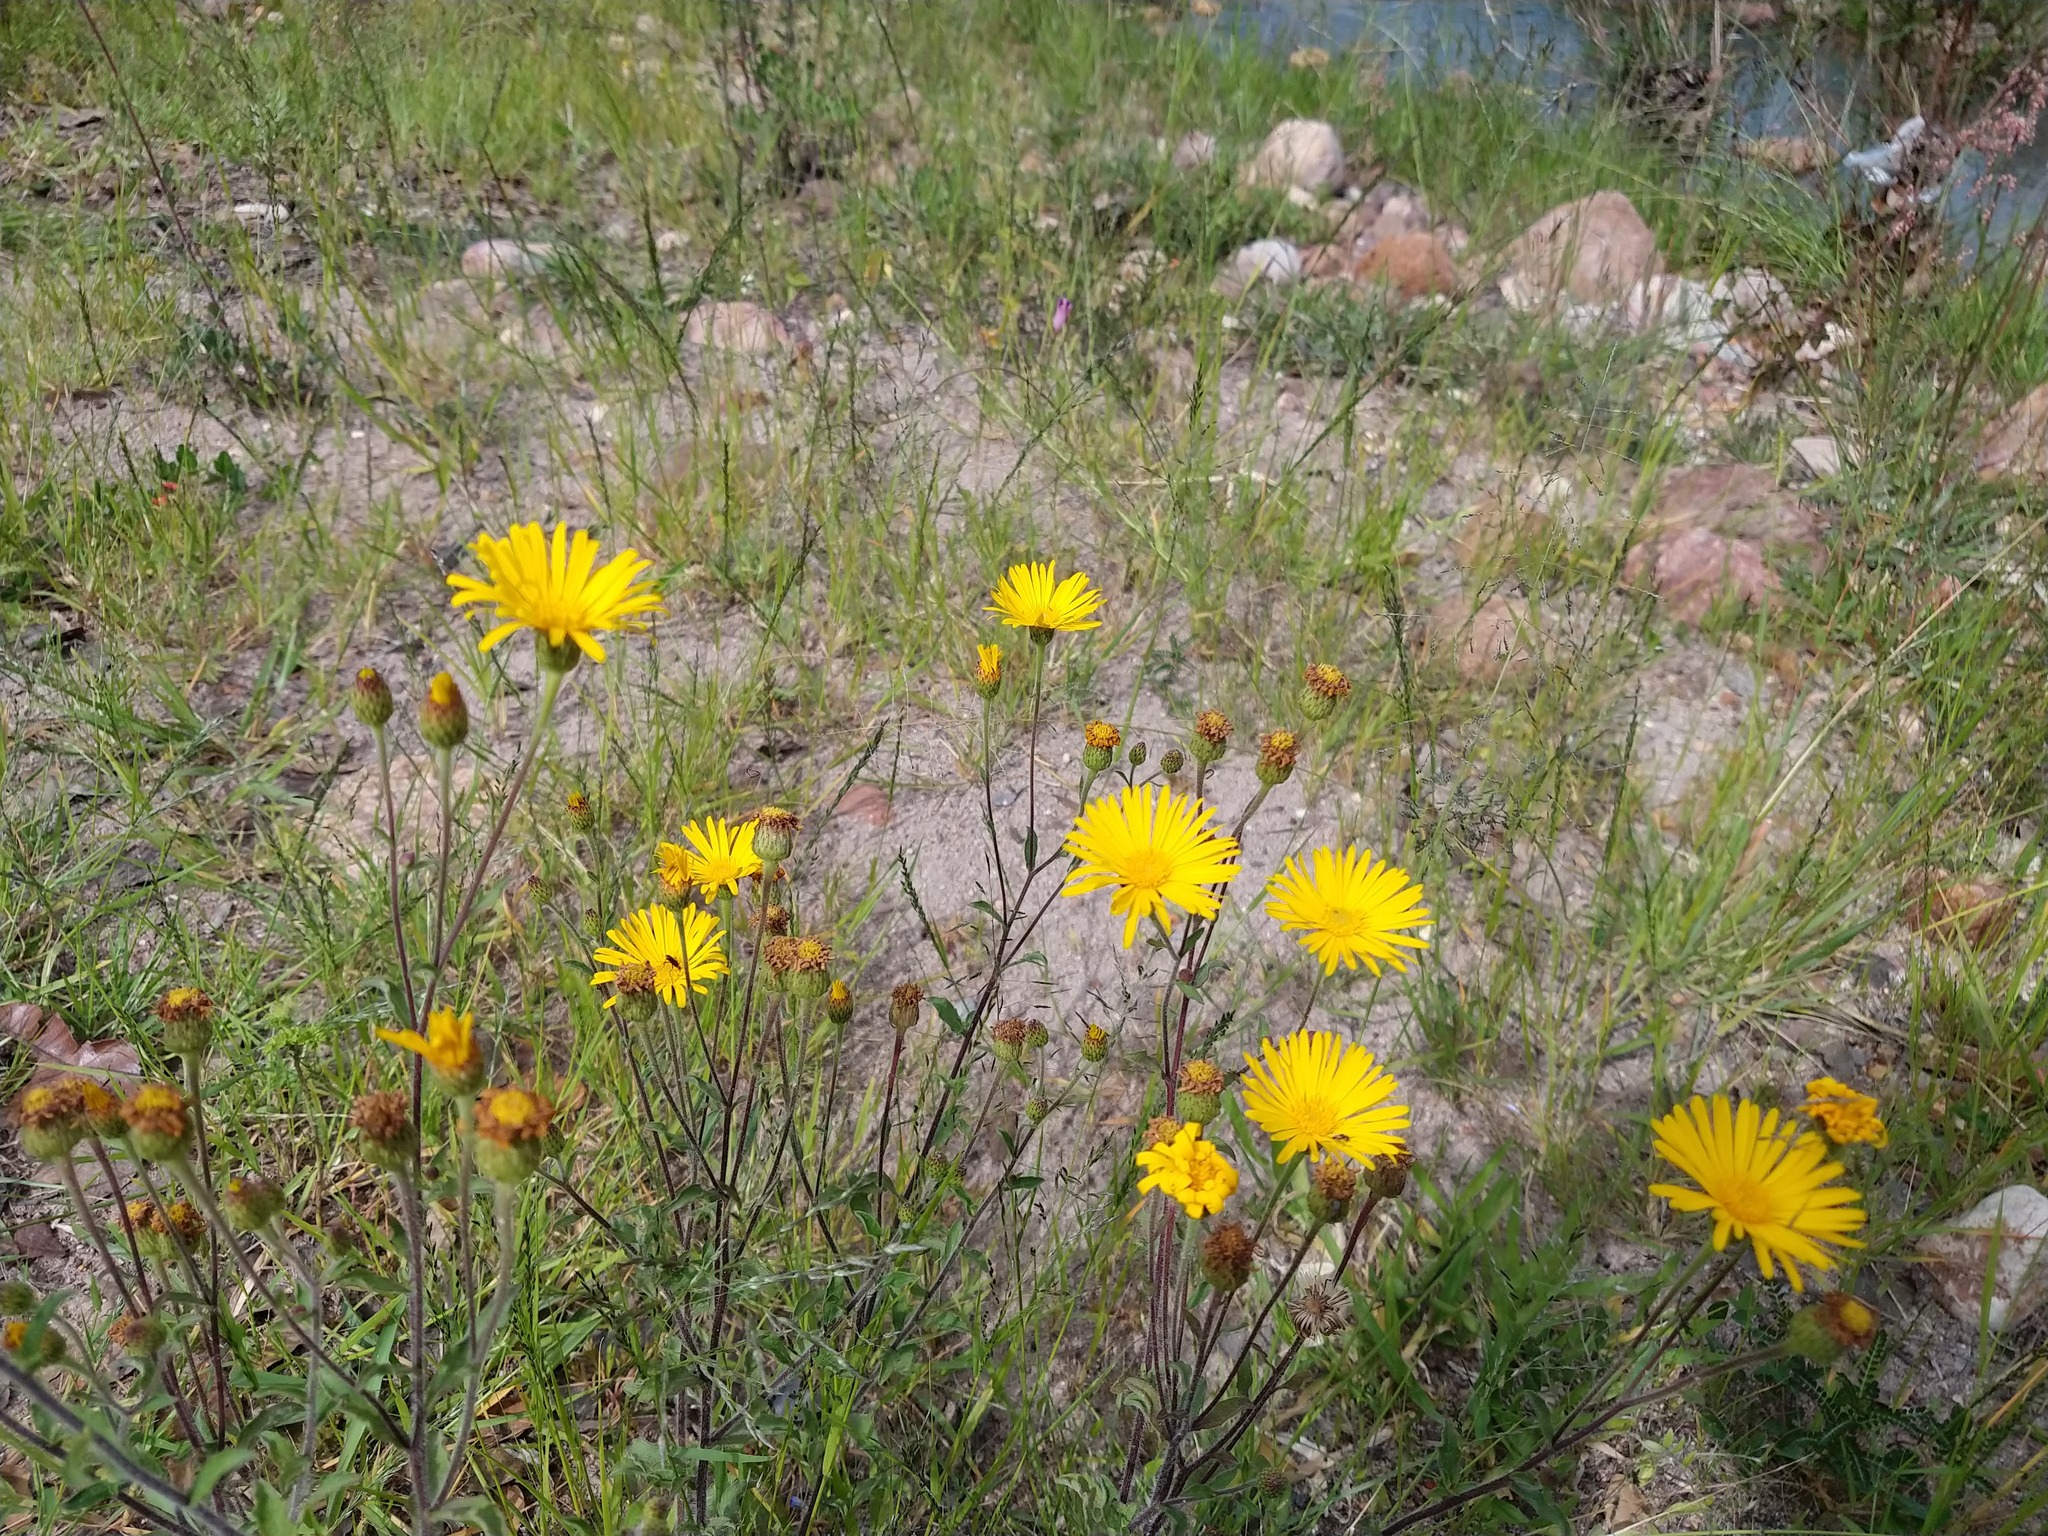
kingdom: Plantae
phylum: Tracheophyta
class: Magnoliopsida
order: Asterales
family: Asteraceae
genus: Heterotheca
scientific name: Heterotheca inuloides
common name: False arnica
